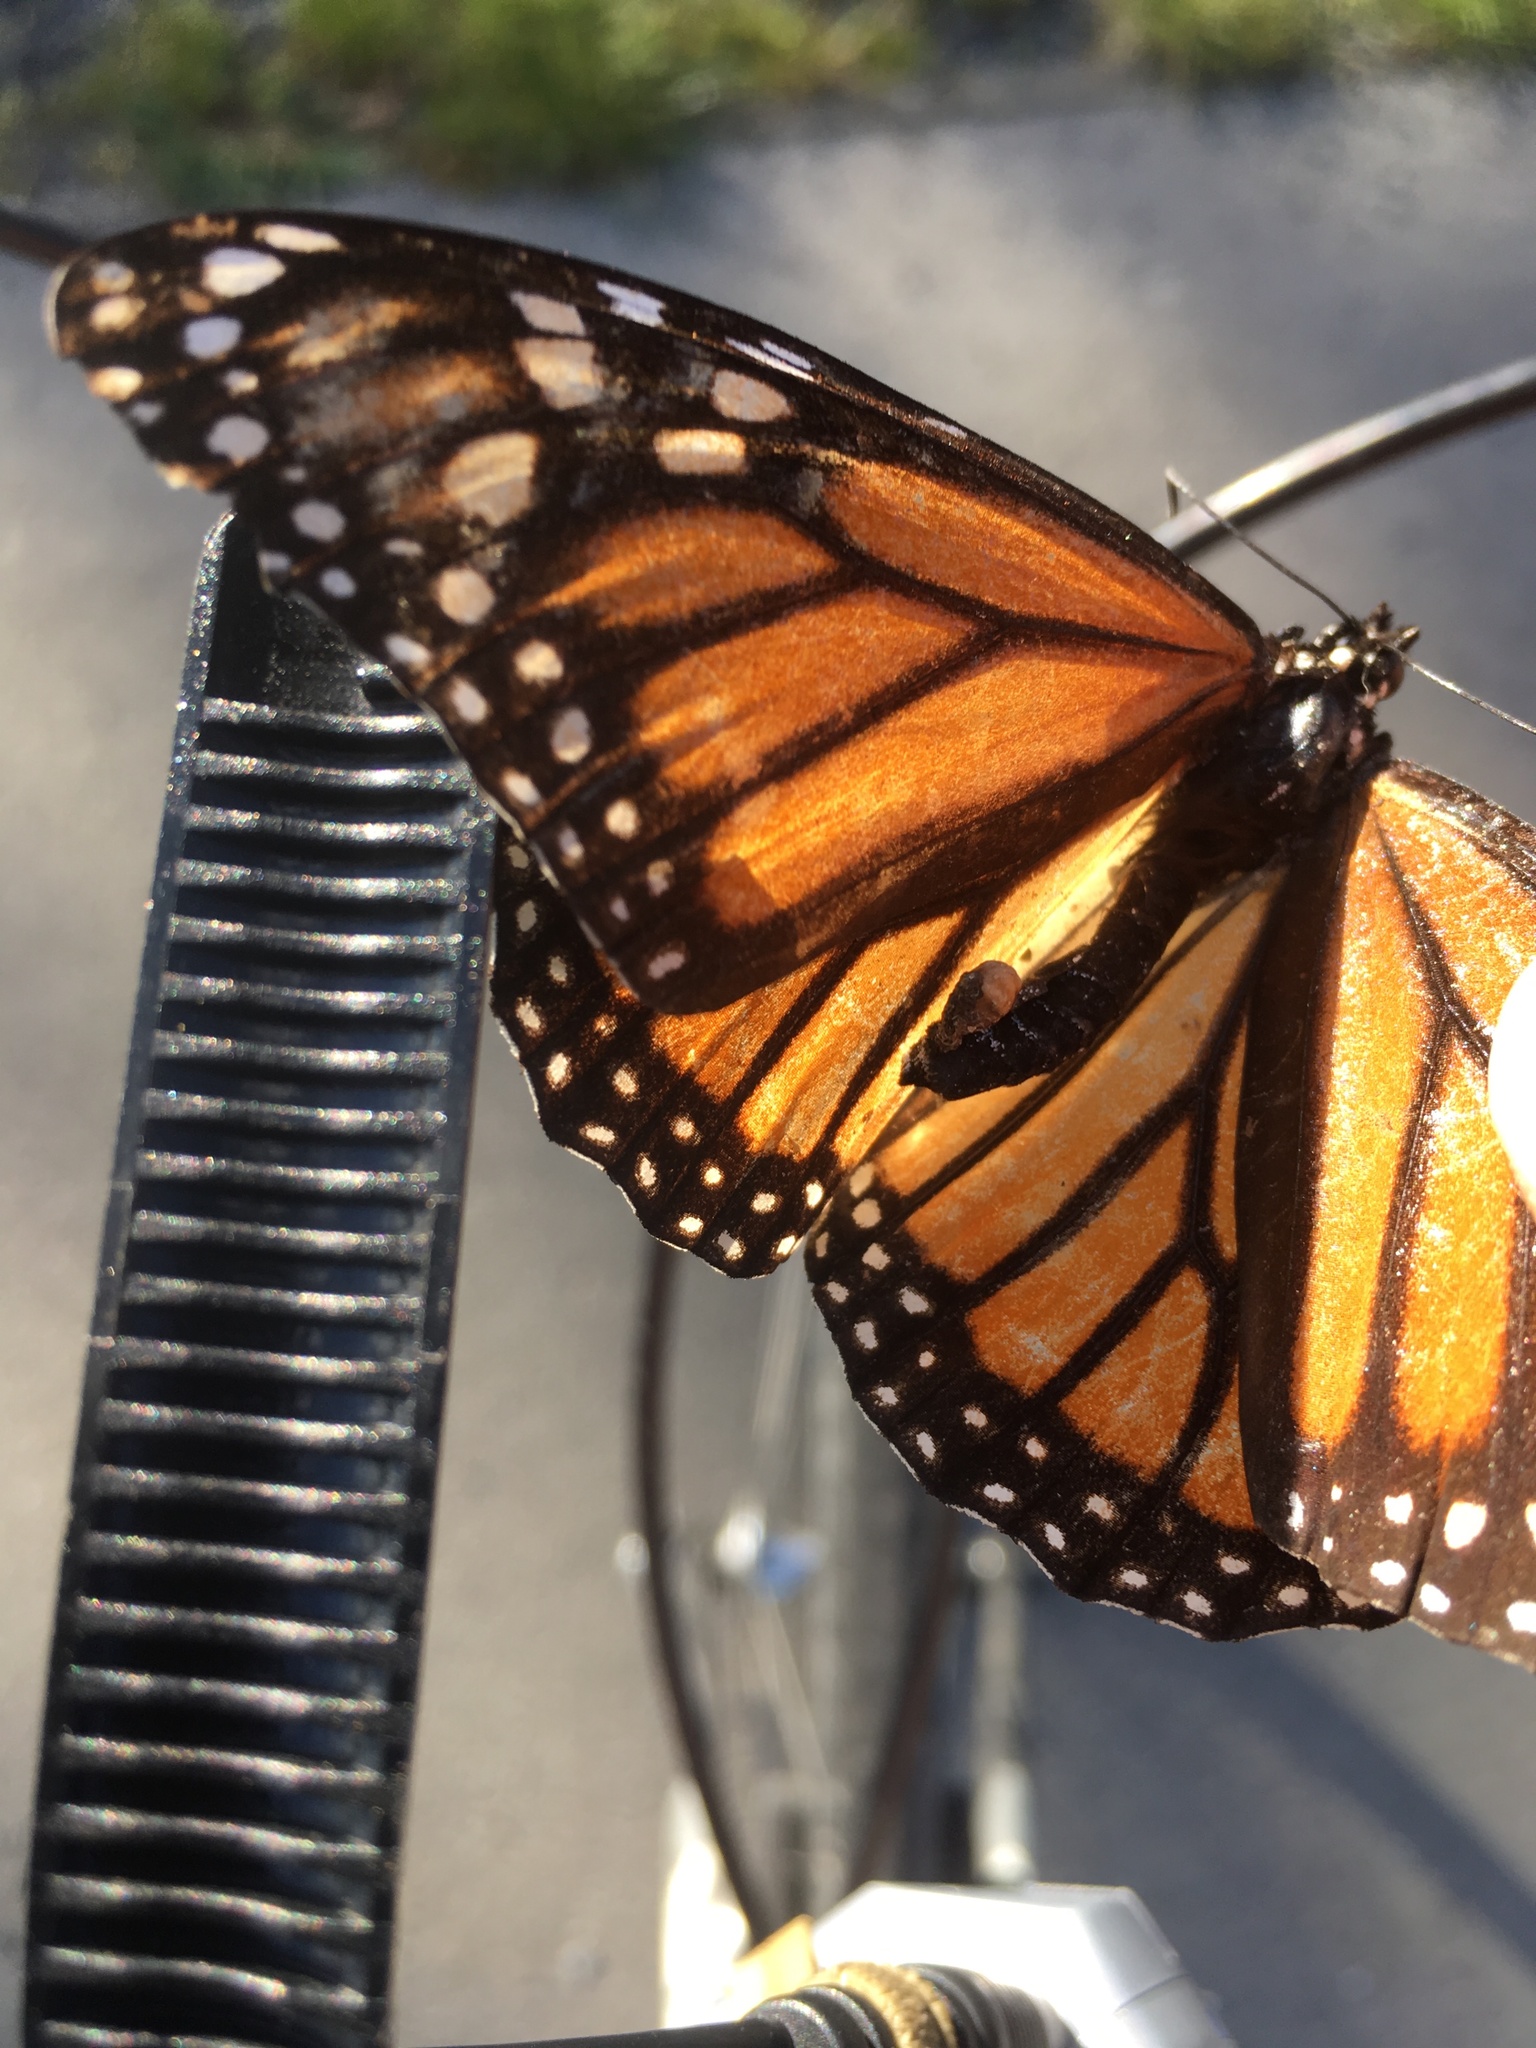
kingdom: Animalia
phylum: Arthropoda
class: Insecta
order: Lepidoptera
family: Nymphalidae
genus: Danaus
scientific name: Danaus plexippus
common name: Monarch
